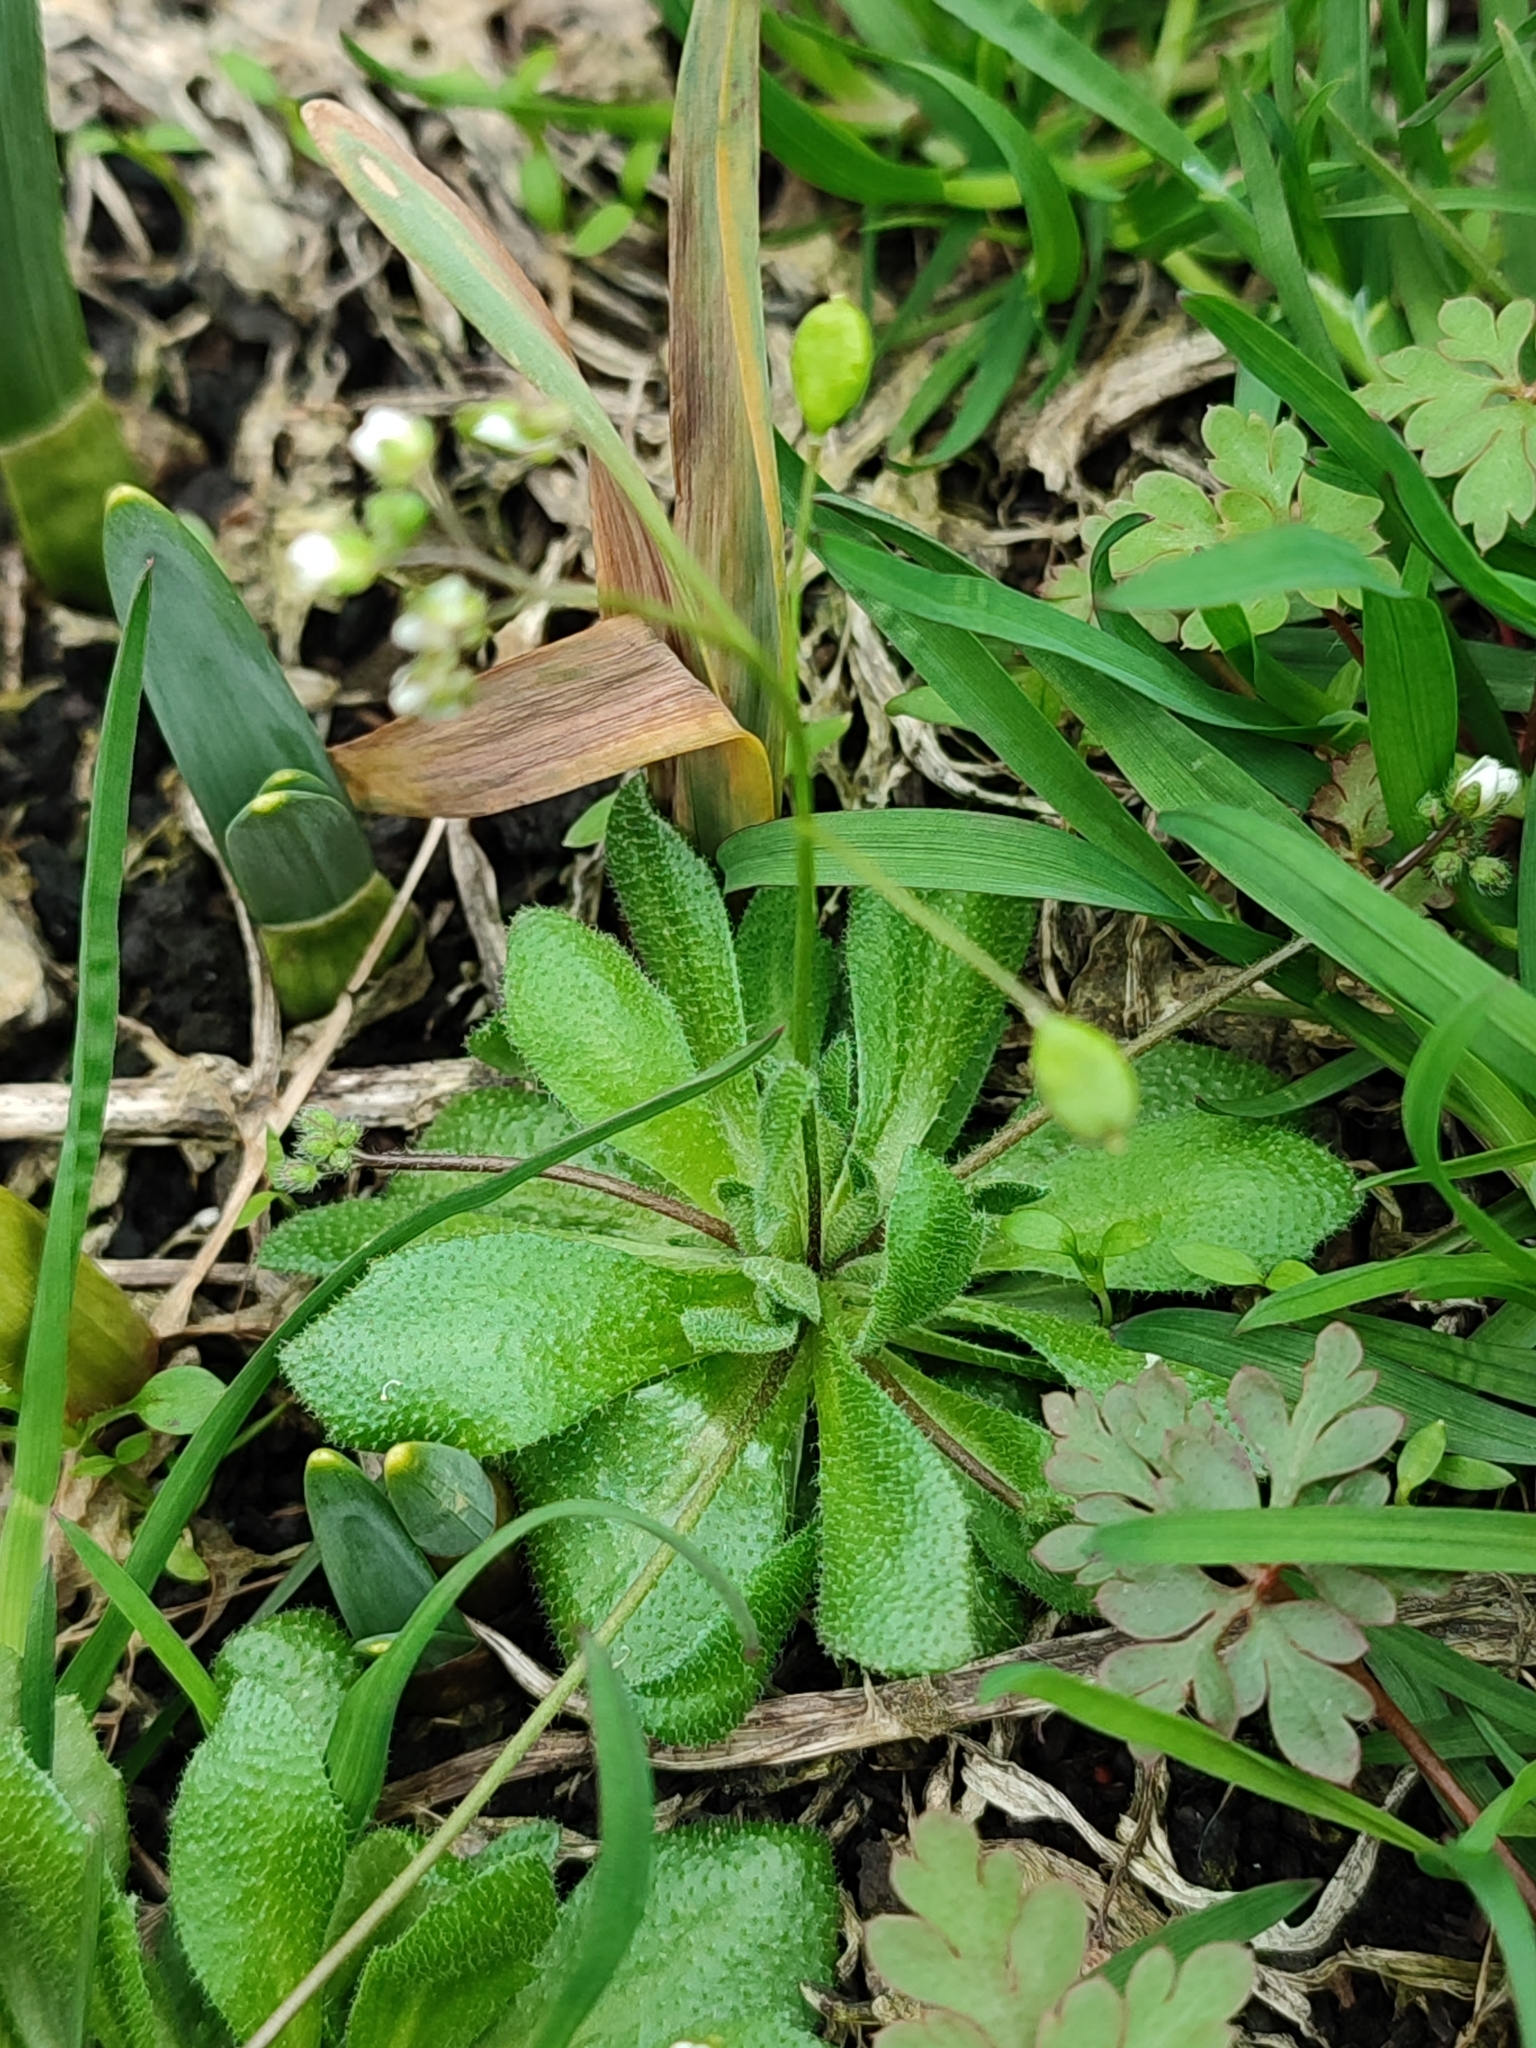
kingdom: Plantae
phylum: Tracheophyta
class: Magnoliopsida
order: Brassicales
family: Brassicaceae
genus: Draba
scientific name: Draba verna
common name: Spring draba
